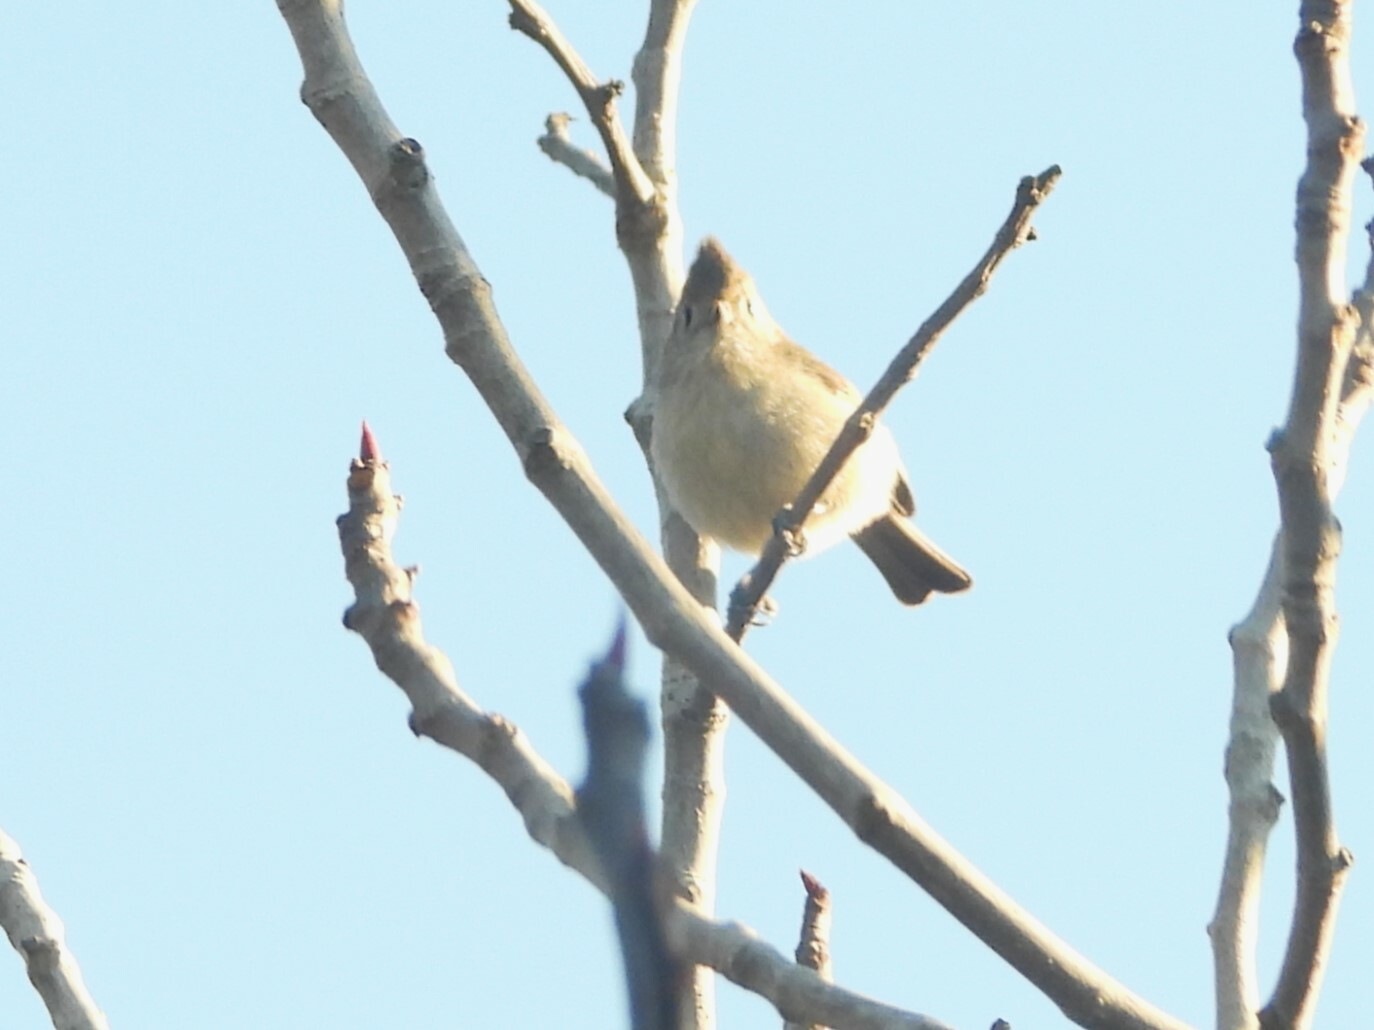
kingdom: Animalia
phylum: Chordata
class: Aves
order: Passeriformes
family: Paridae
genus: Baeolophus
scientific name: Baeolophus inornatus
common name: Oak titmouse
